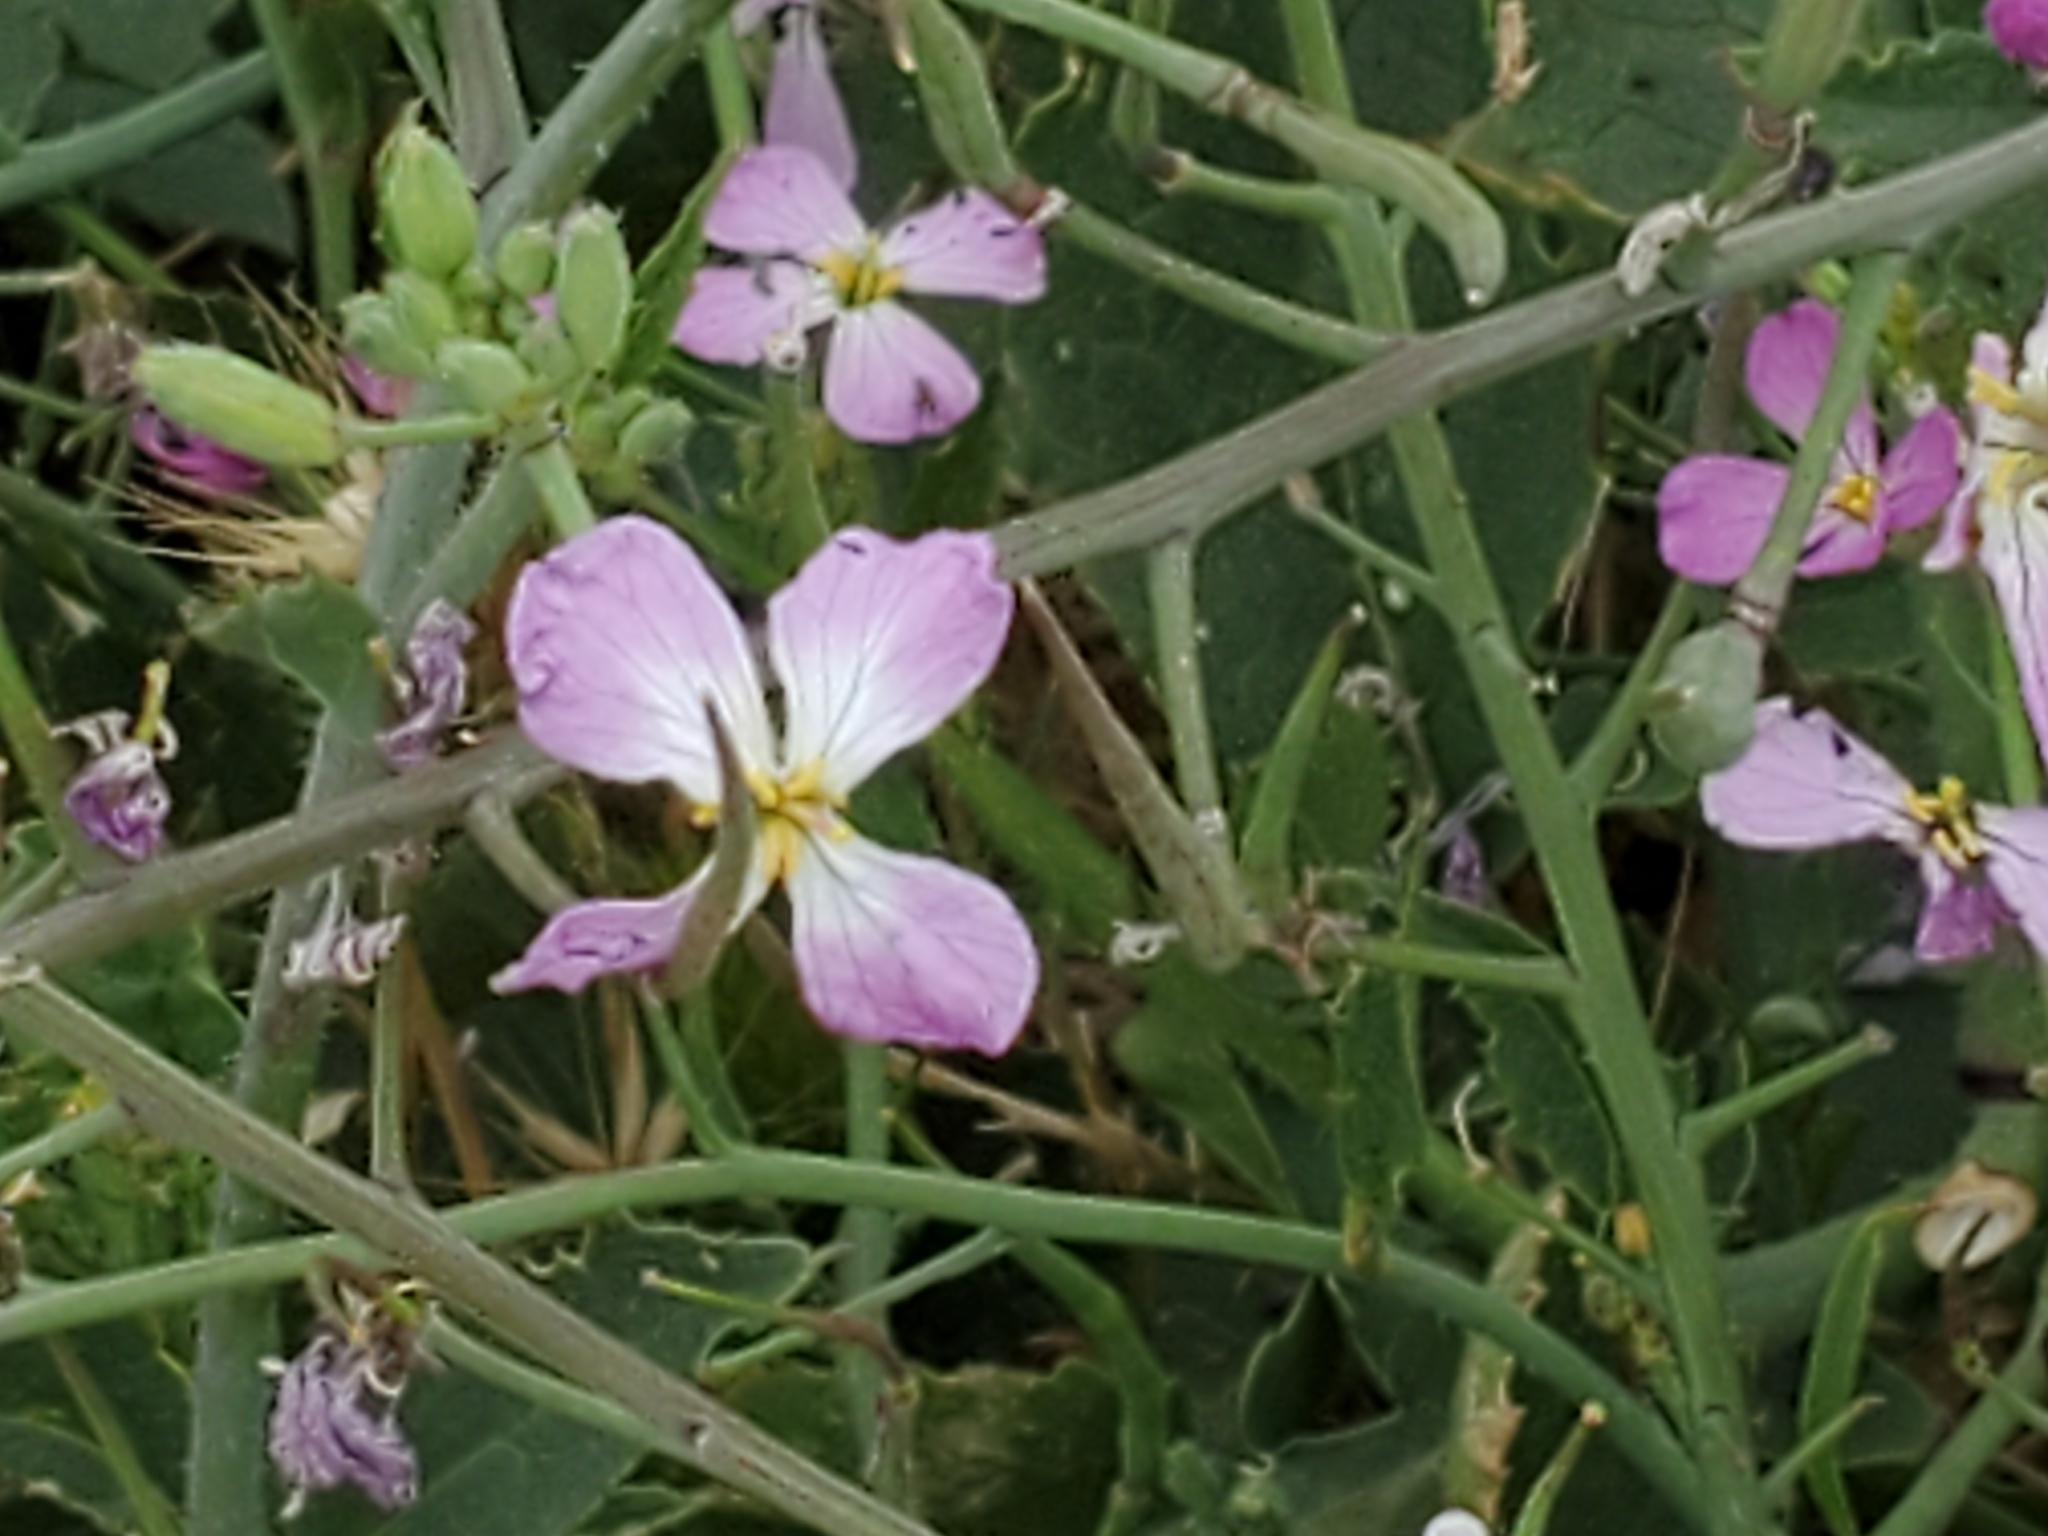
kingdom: Plantae
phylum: Tracheophyta
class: Magnoliopsida
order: Brassicales
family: Brassicaceae
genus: Raphanus
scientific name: Raphanus sativus
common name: Cultivated radish
